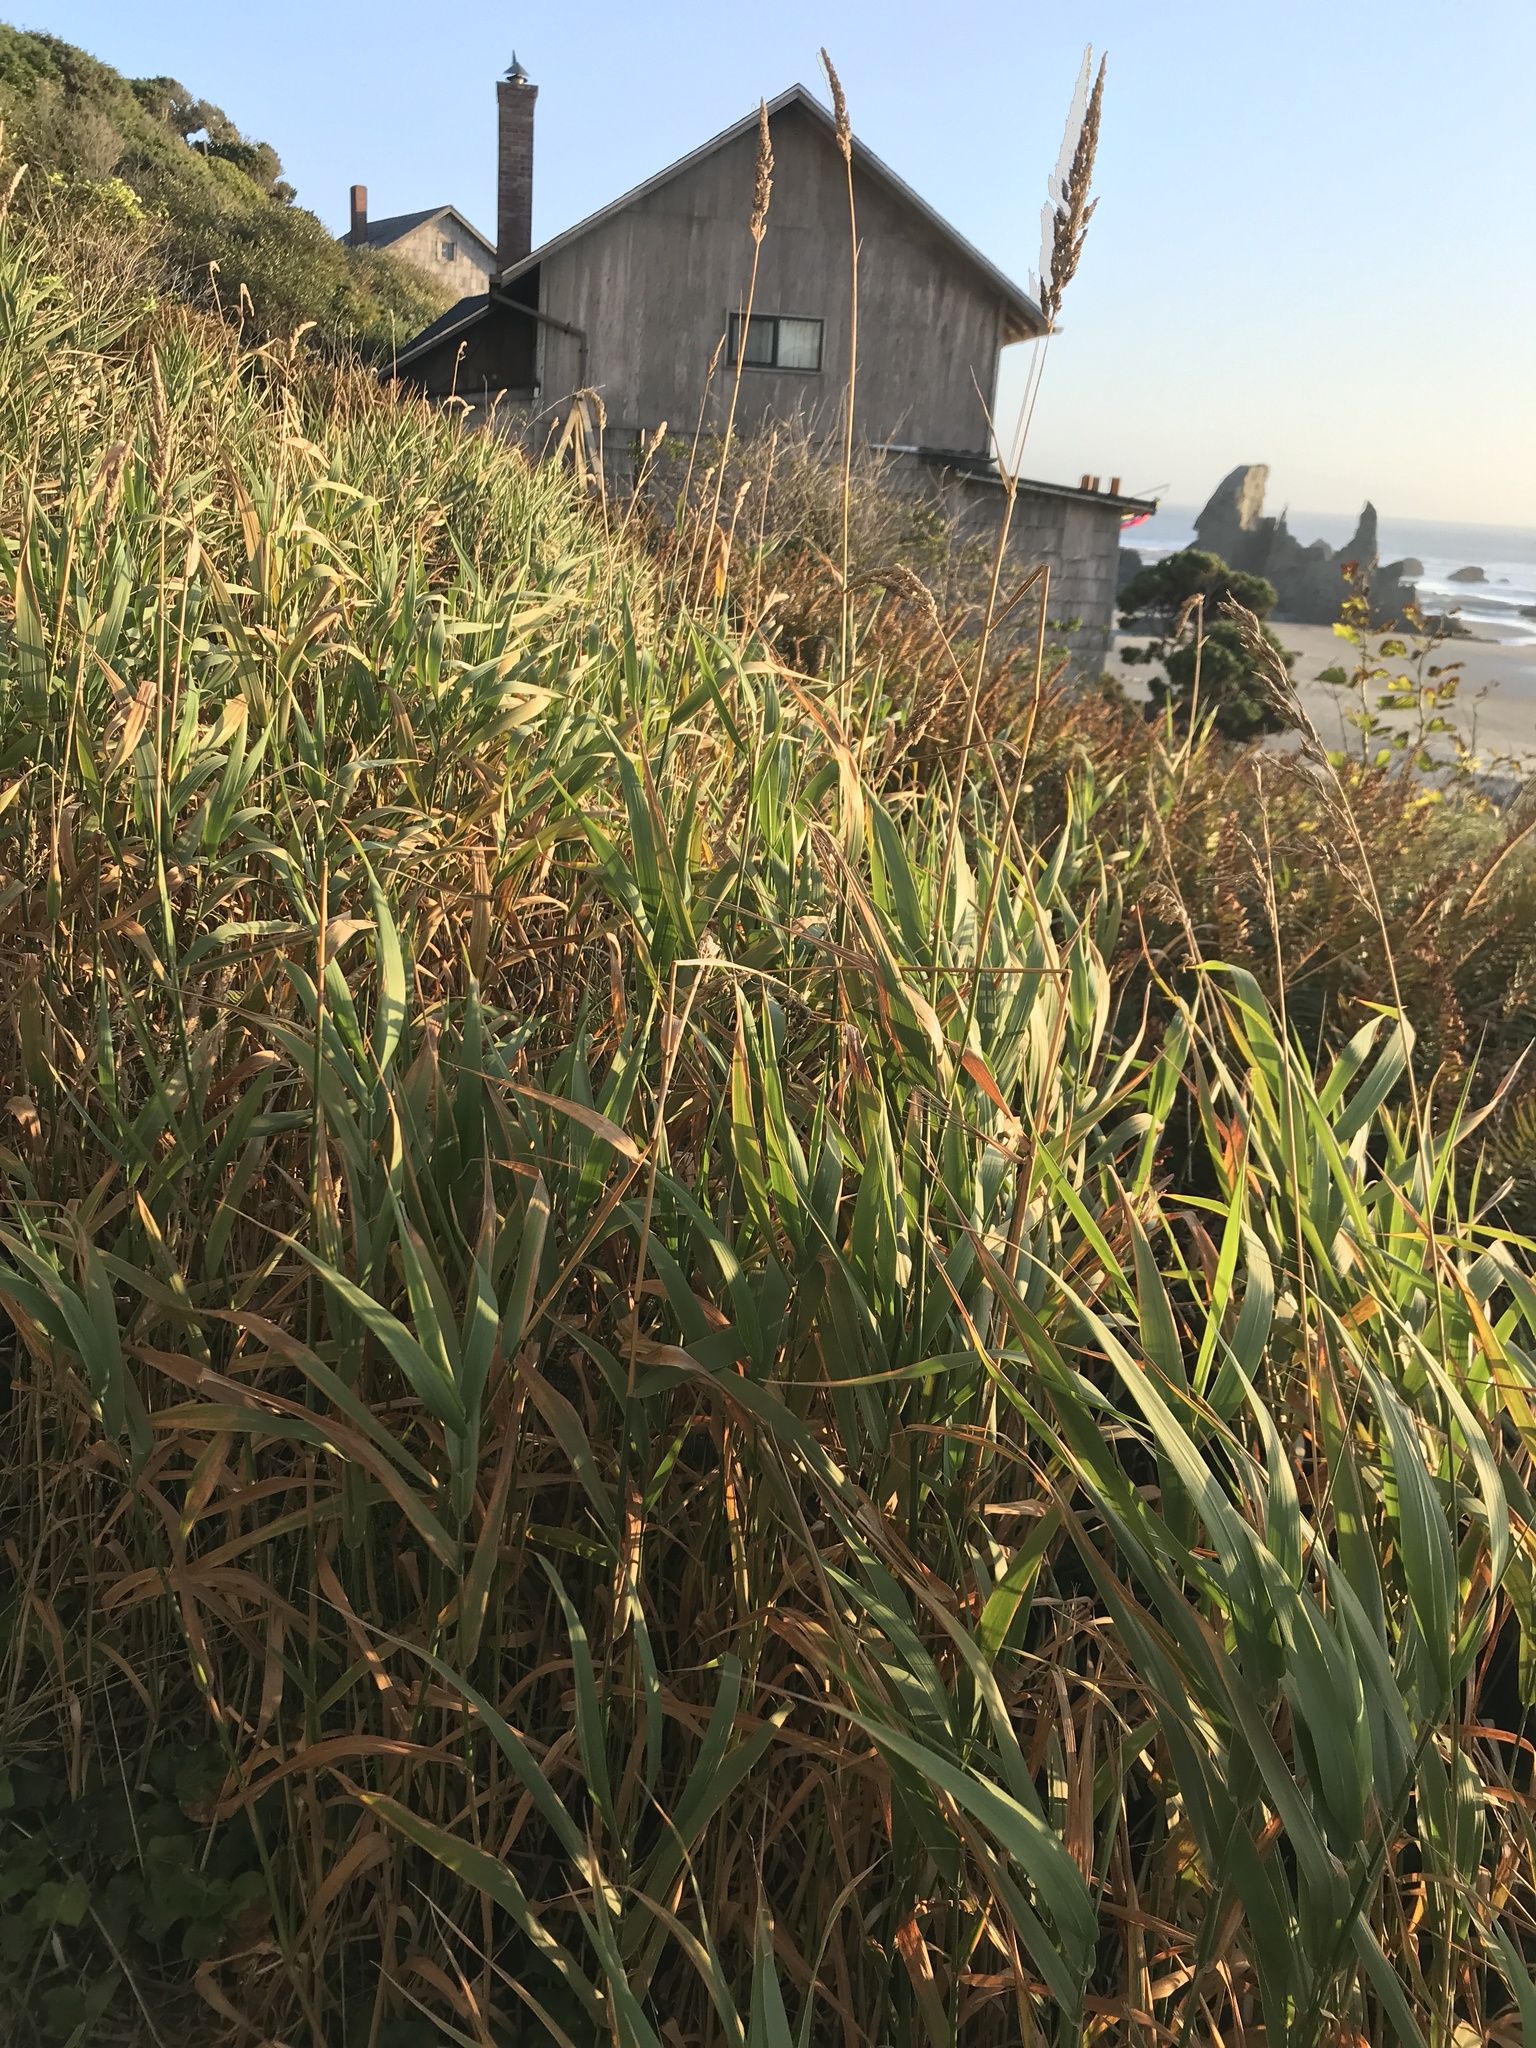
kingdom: Plantae
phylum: Tracheophyta
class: Liliopsida
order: Poales
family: Poaceae
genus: Phalaris
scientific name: Phalaris arundinacea
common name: Reed canary-grass
